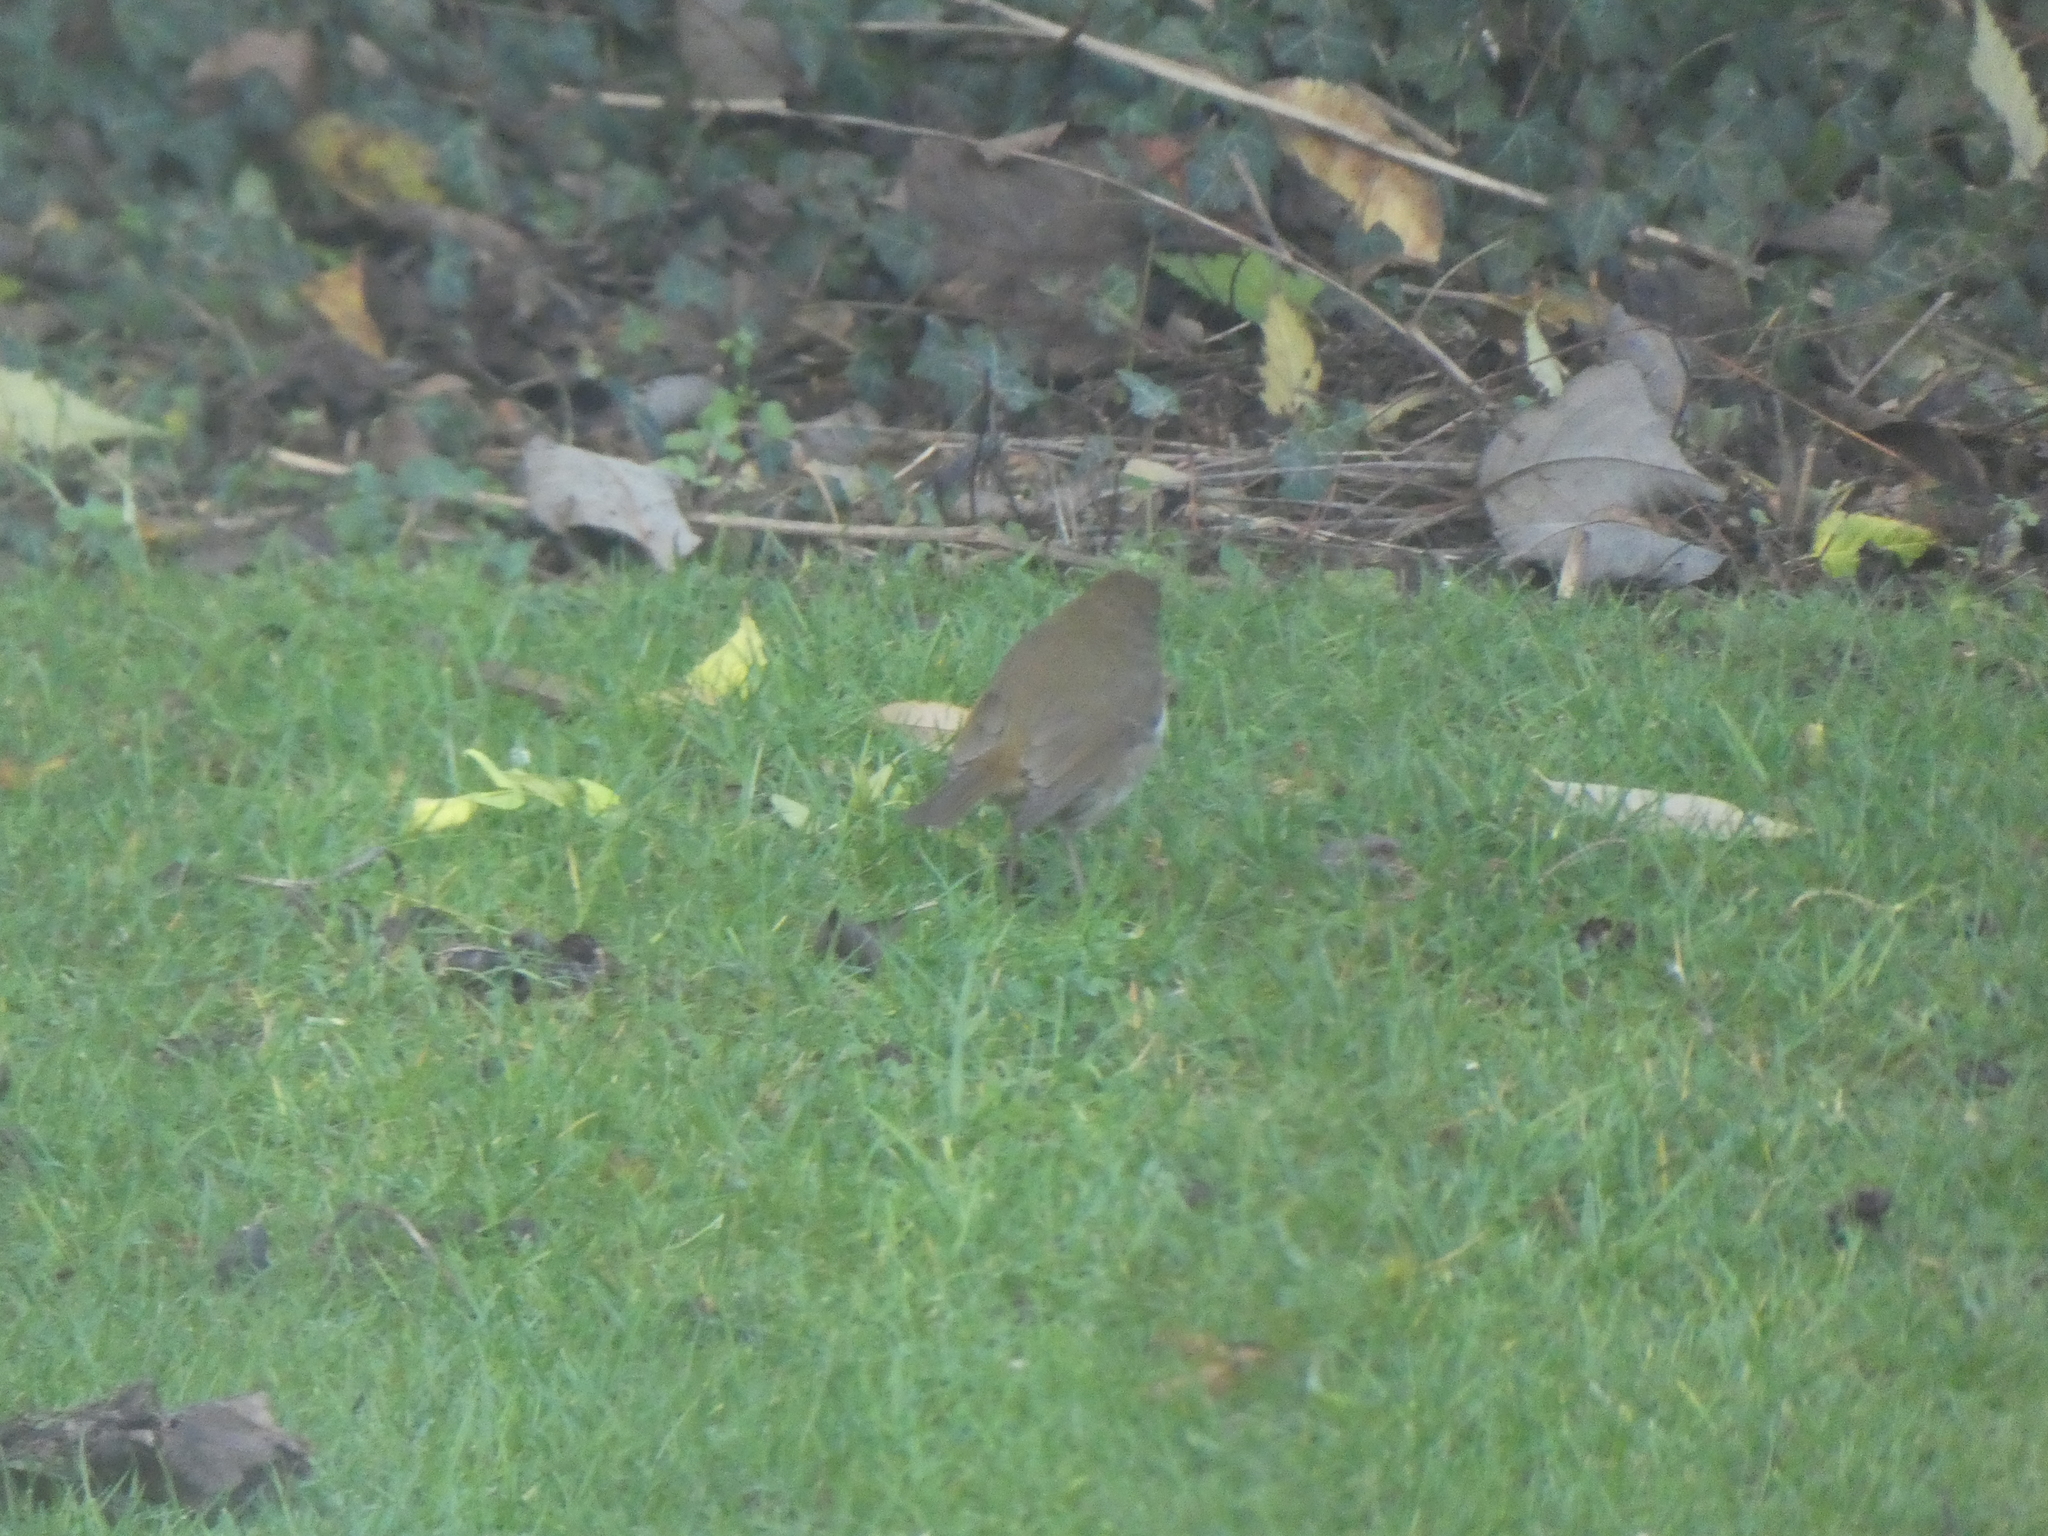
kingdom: Animalia
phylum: Chordata
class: Aves
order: Passeriformes
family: Muscicapidae
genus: Erithacus
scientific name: Erithacus rubecula
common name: European robin
